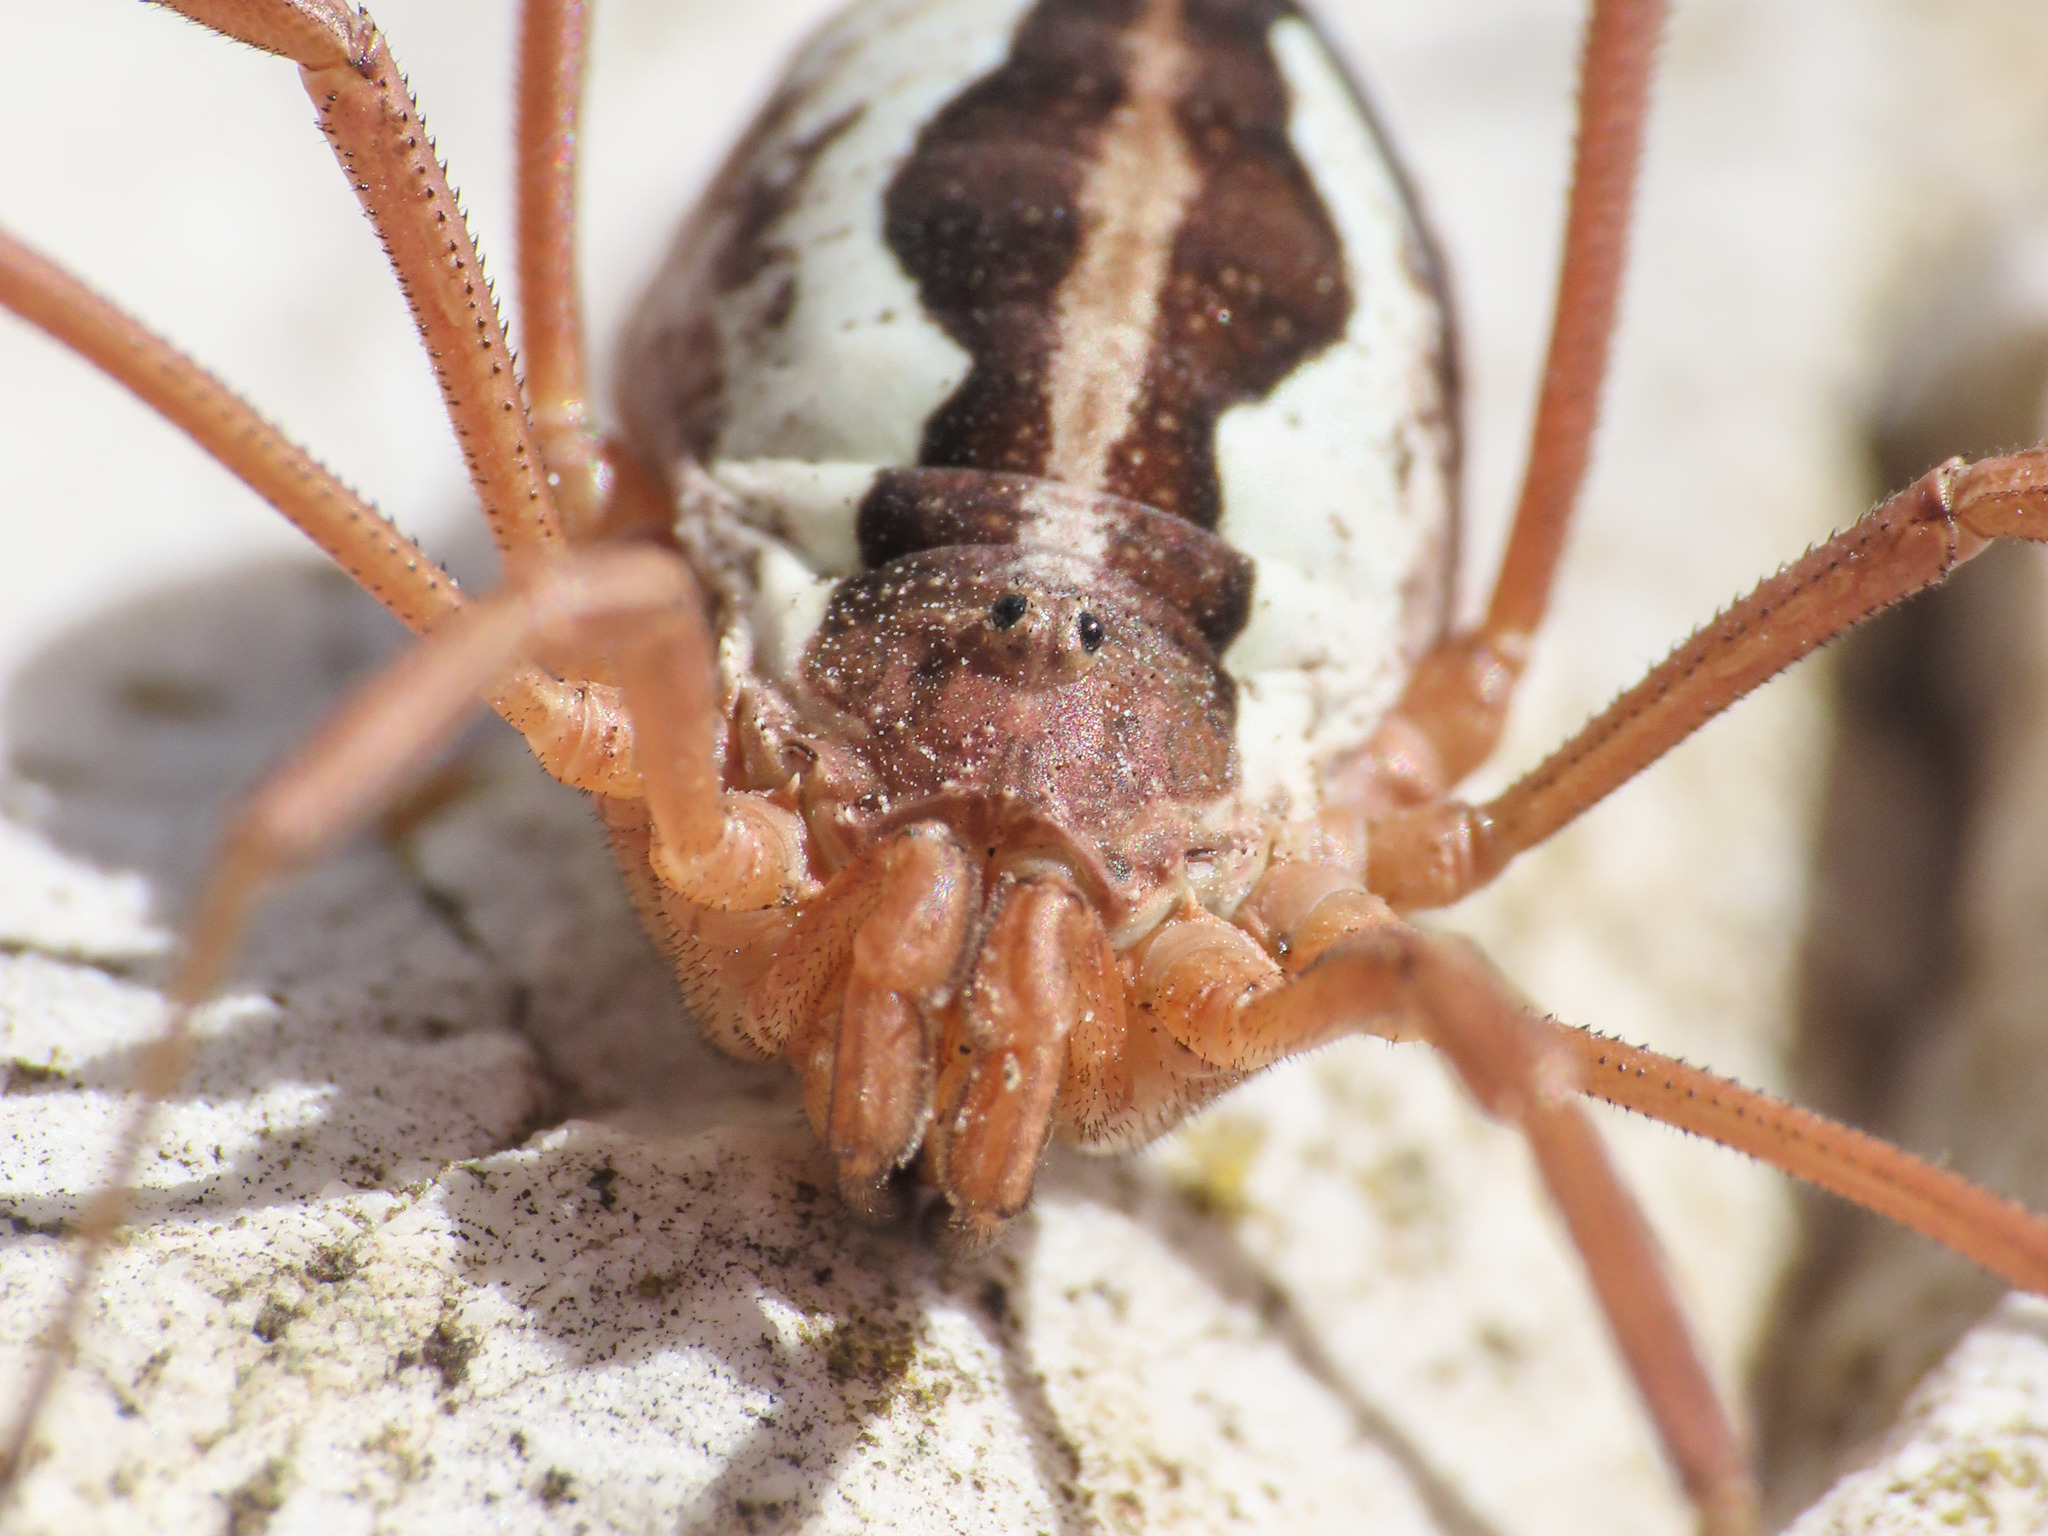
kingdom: Animalia
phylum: Arthropoda
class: Arachnida
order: Opiliones
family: Phalangiidae
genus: Mitopus
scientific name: Mitopus morio
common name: Saddleback harvestman
